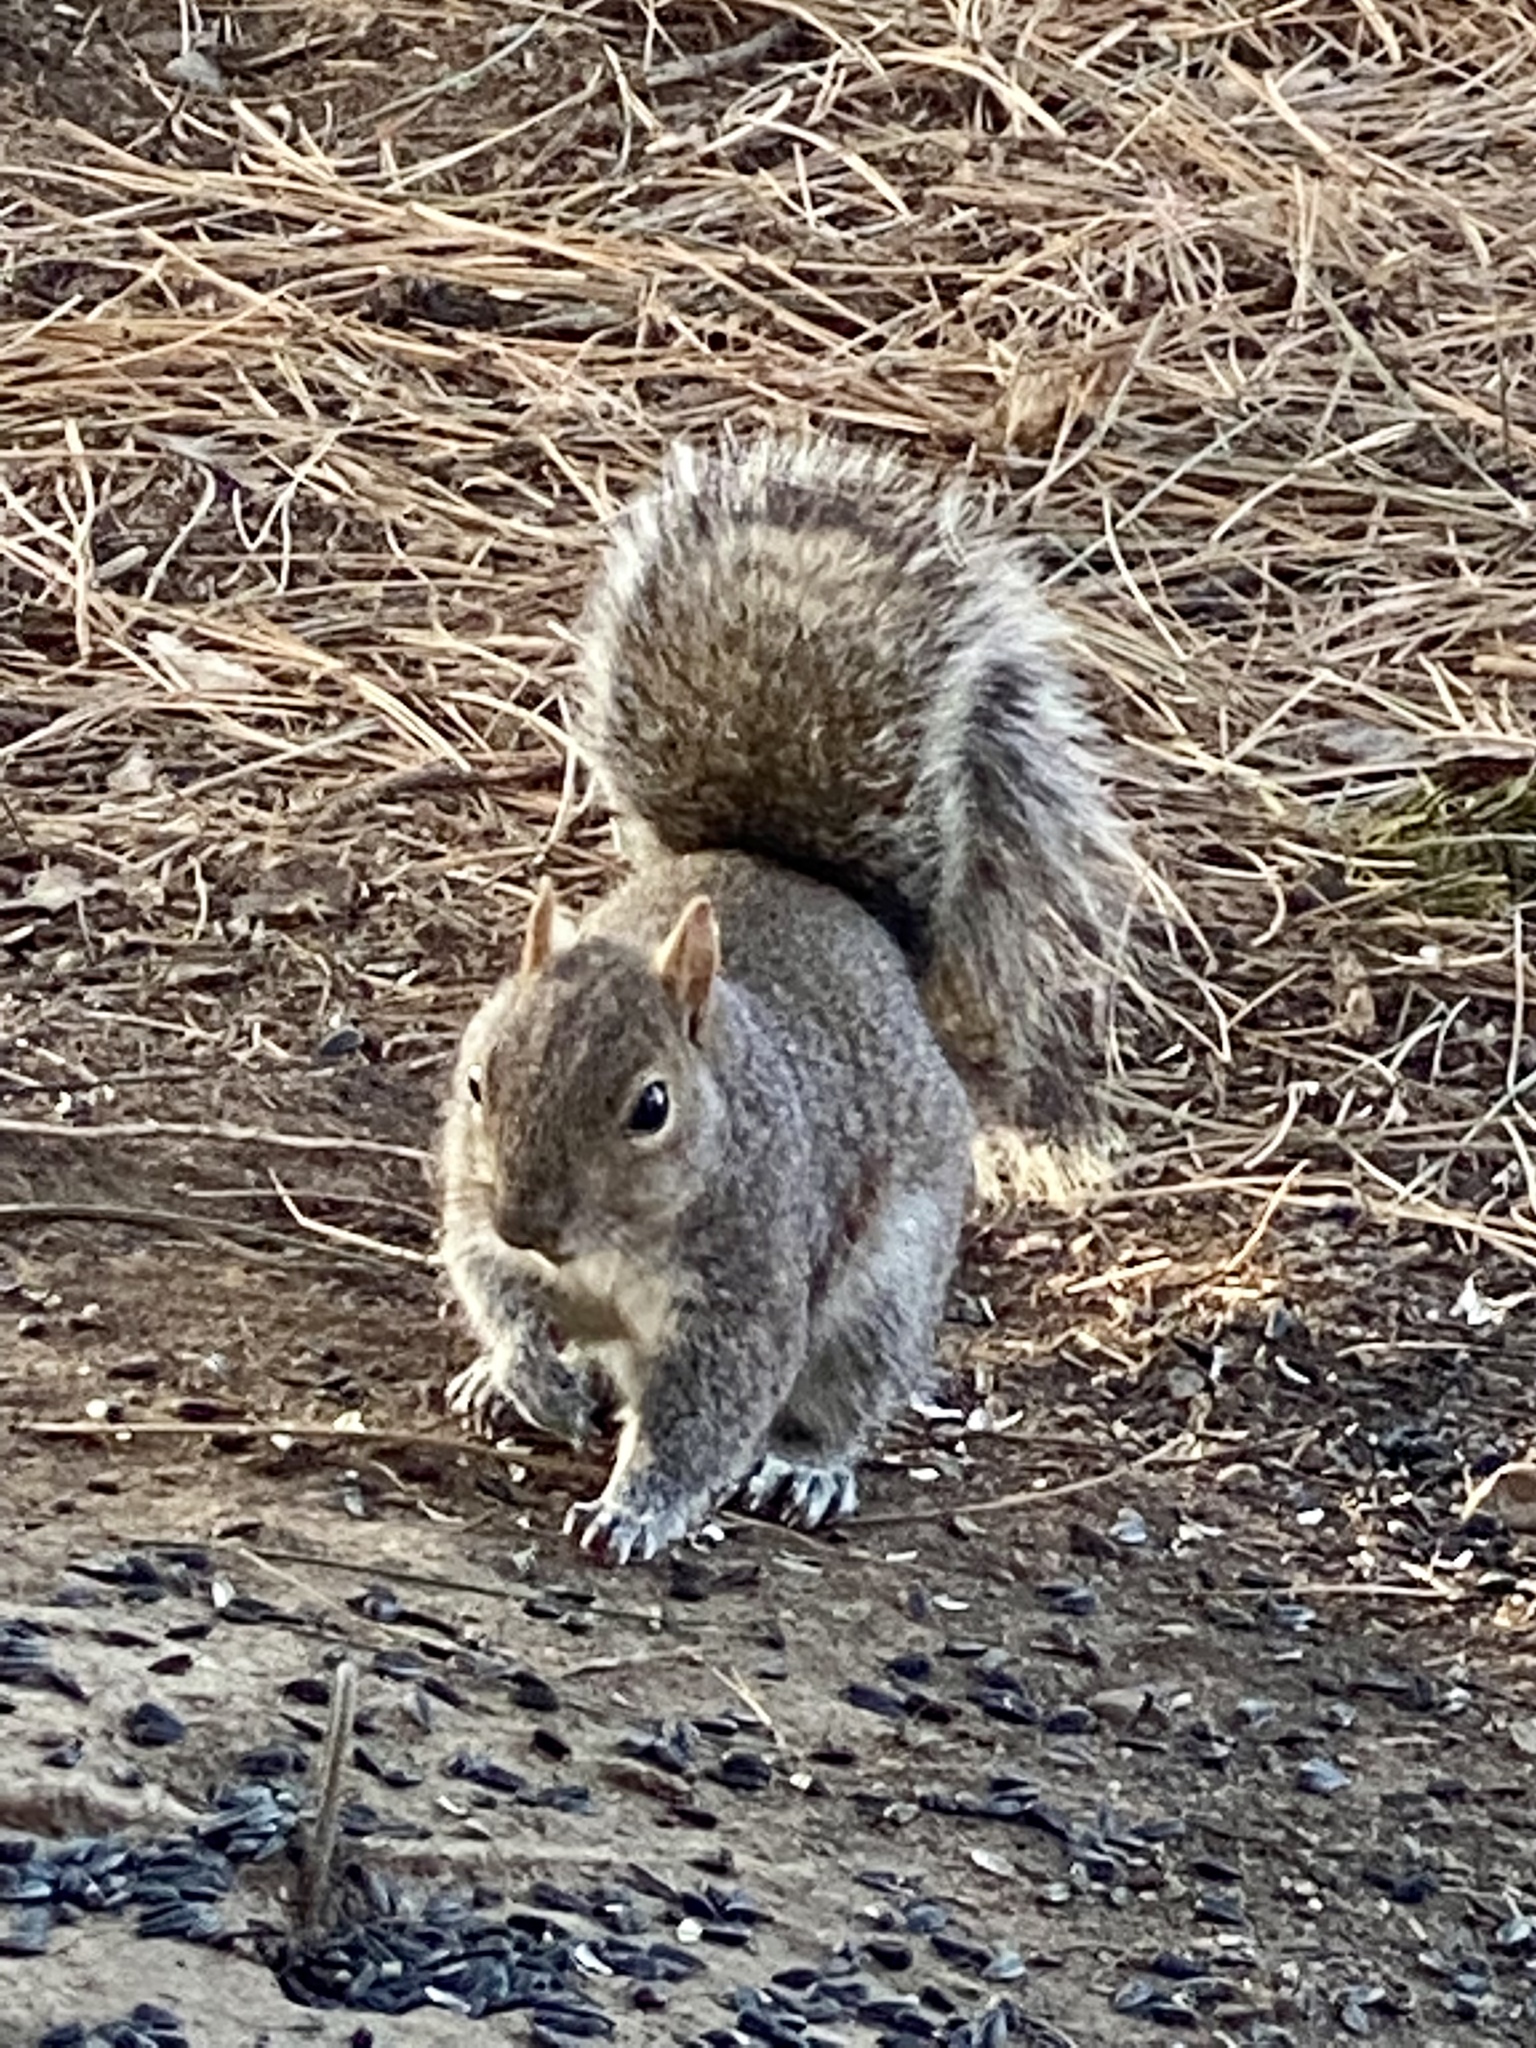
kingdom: Animalia
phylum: Chordata
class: Mammalia
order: Rodentia
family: Sciuridae
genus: Sciurus
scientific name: Sciurus carolinensis
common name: Eastern gray squirrel
